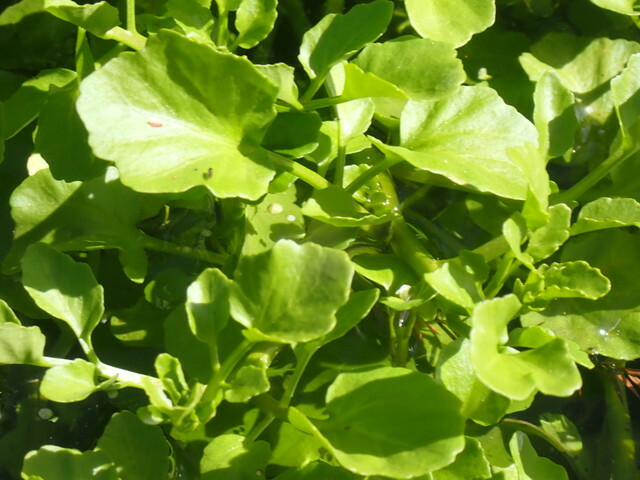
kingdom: Plantae
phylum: Tracheophyta
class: Magnoliopsida
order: Brassicales
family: Brassicaceae
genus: Nasturtium
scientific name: Nasturtium floridanum
